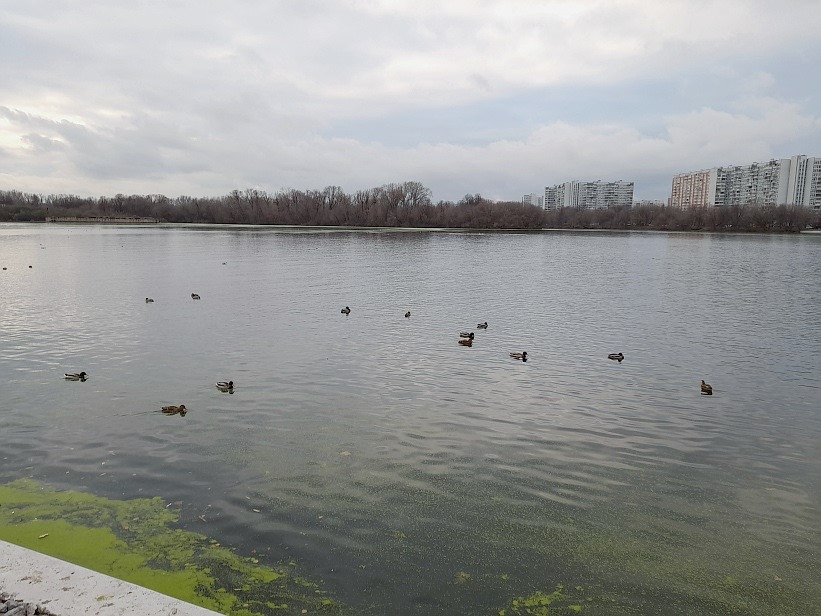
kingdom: Animalia
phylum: Chordata
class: Aves
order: Anseriformes
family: Anatidae
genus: Anas
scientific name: Anas platyrhynchos
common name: Mallard
